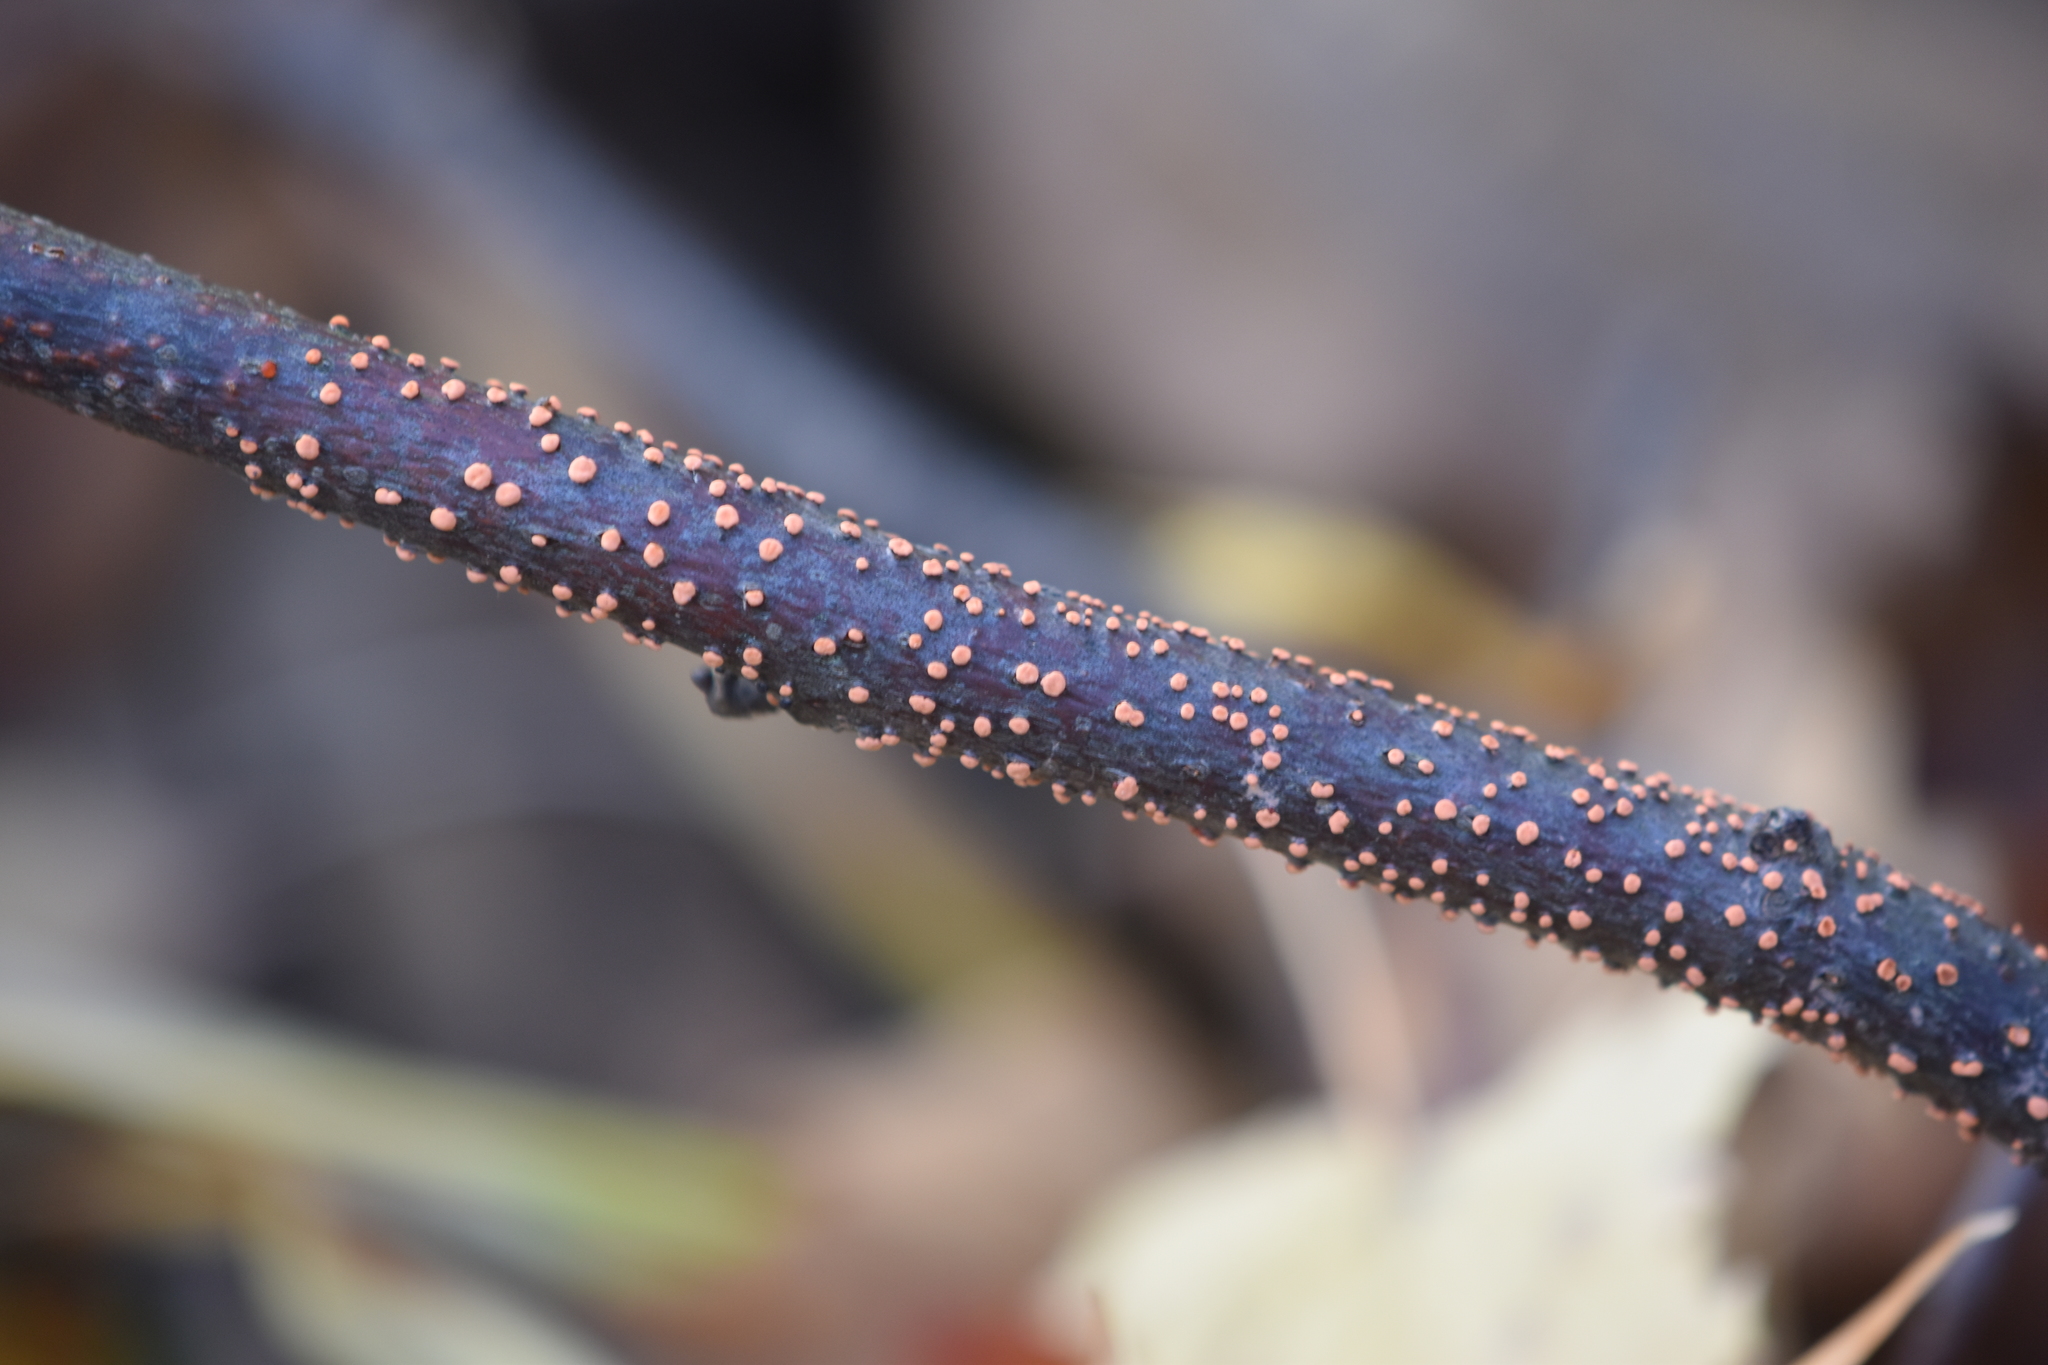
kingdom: Fungi
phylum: Ascomycota
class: Sordariomycetes
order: Hypocreales
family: Nectriaceae
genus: Nectria
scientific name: Nectria cinnabarina
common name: Coral spot
